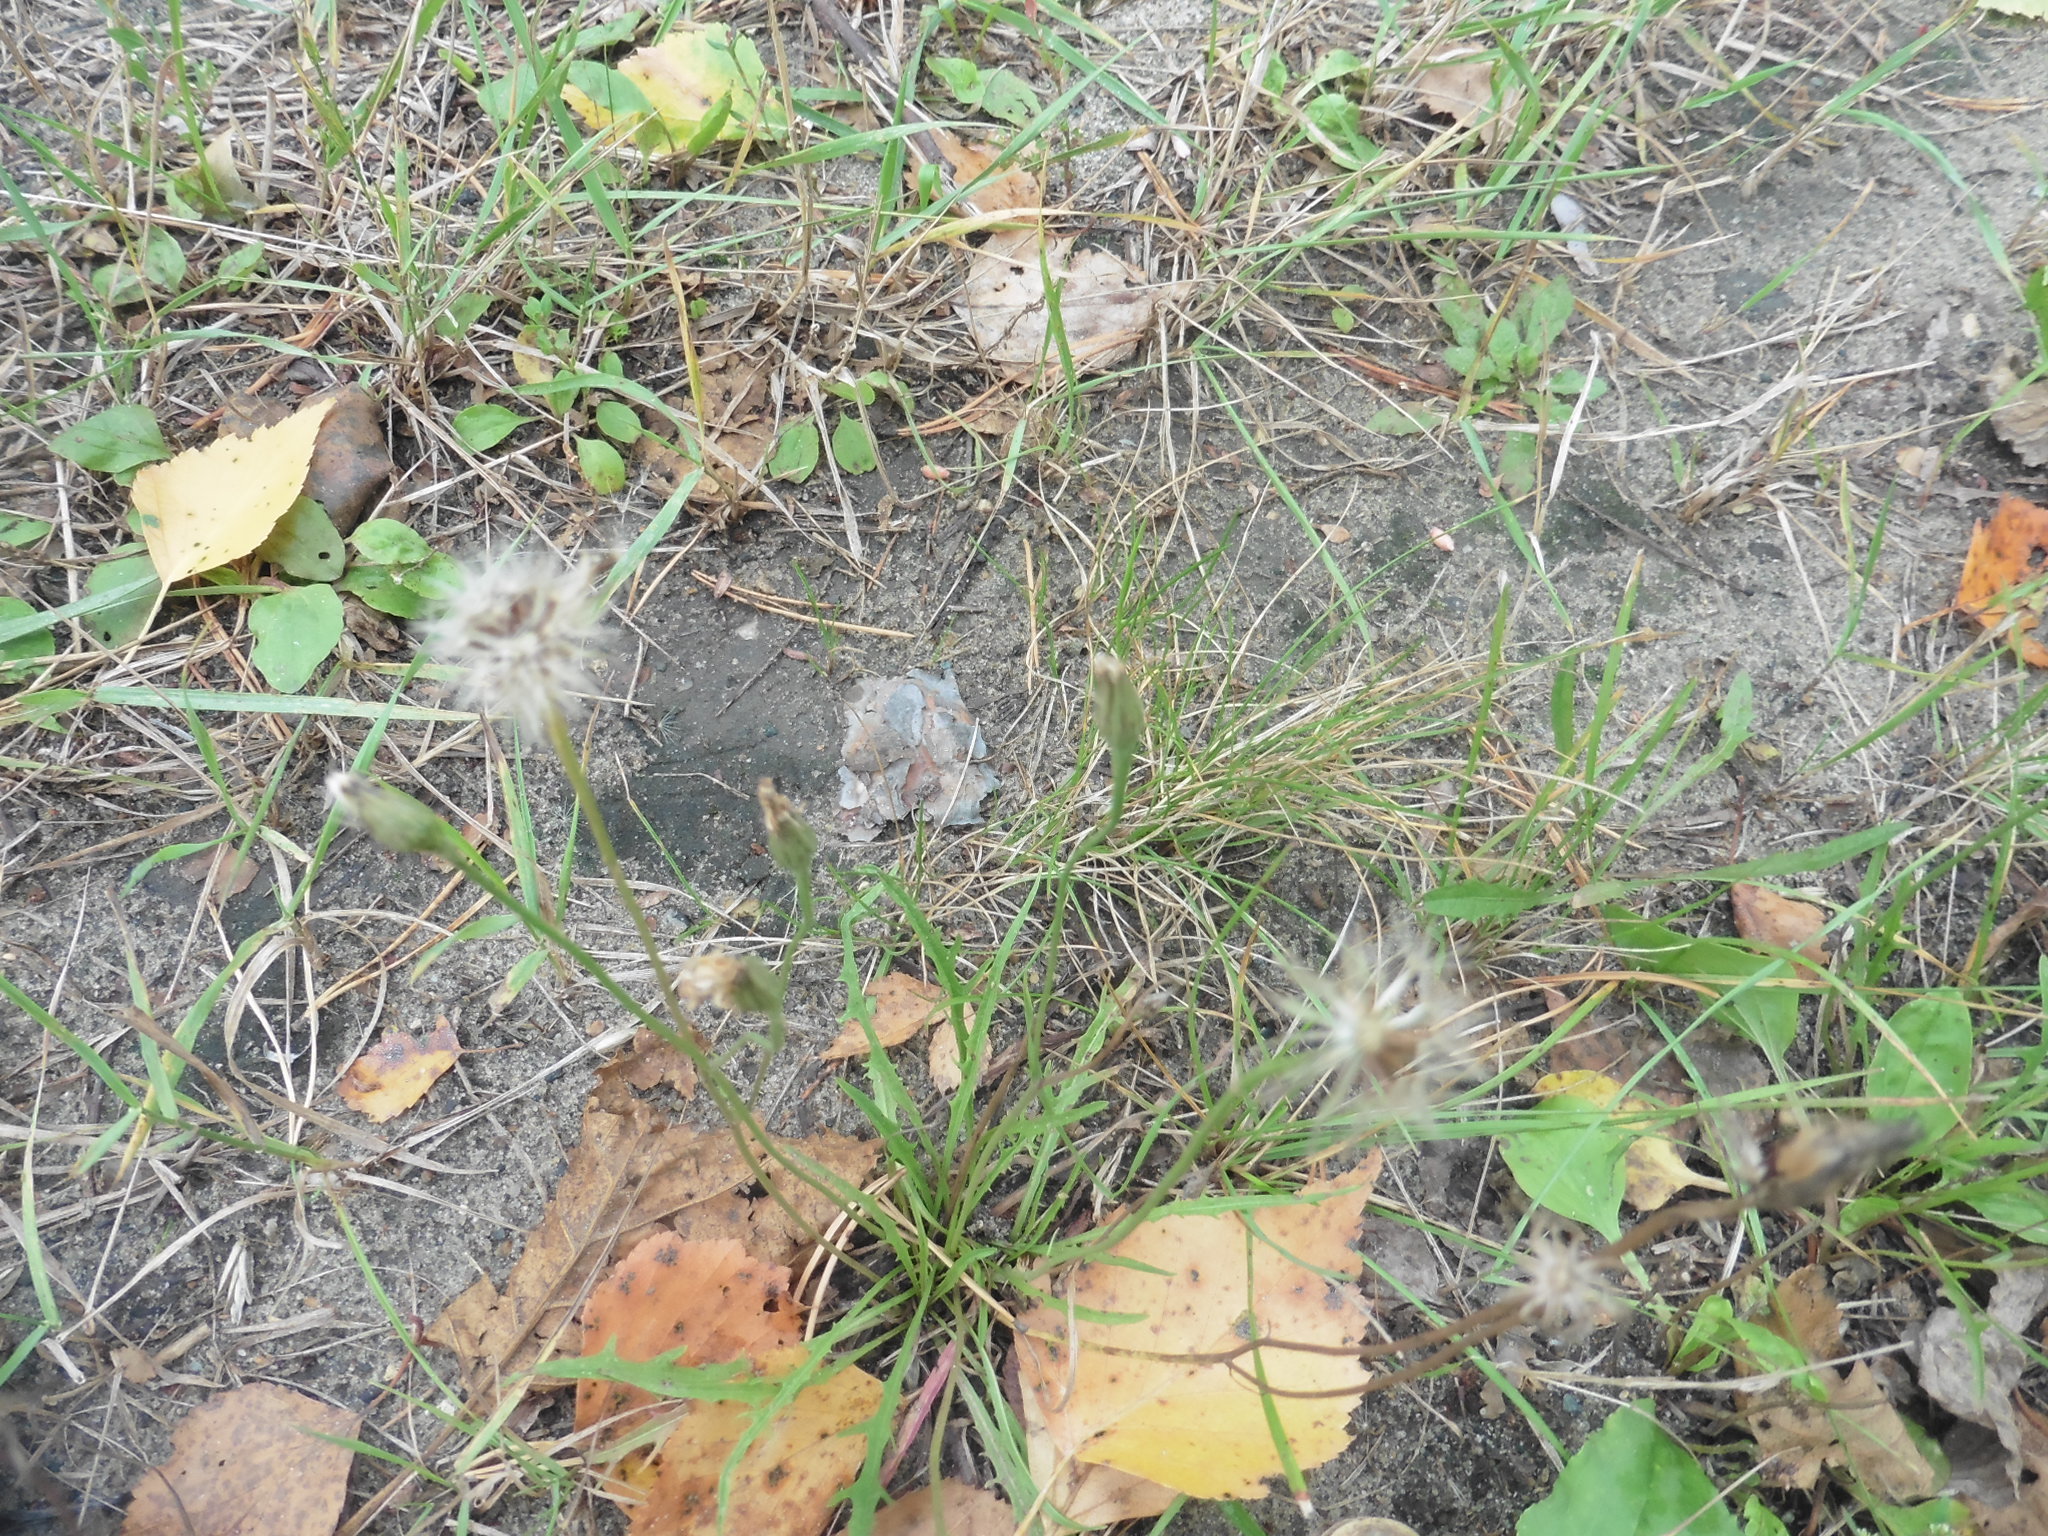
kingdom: Plantae
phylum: Tracheophyta
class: Magnoliopsida
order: Asterales
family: Asteraceae
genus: Scorzoneroides
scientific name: Scorzoneroides autumnalis
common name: Autumn hawkbit
